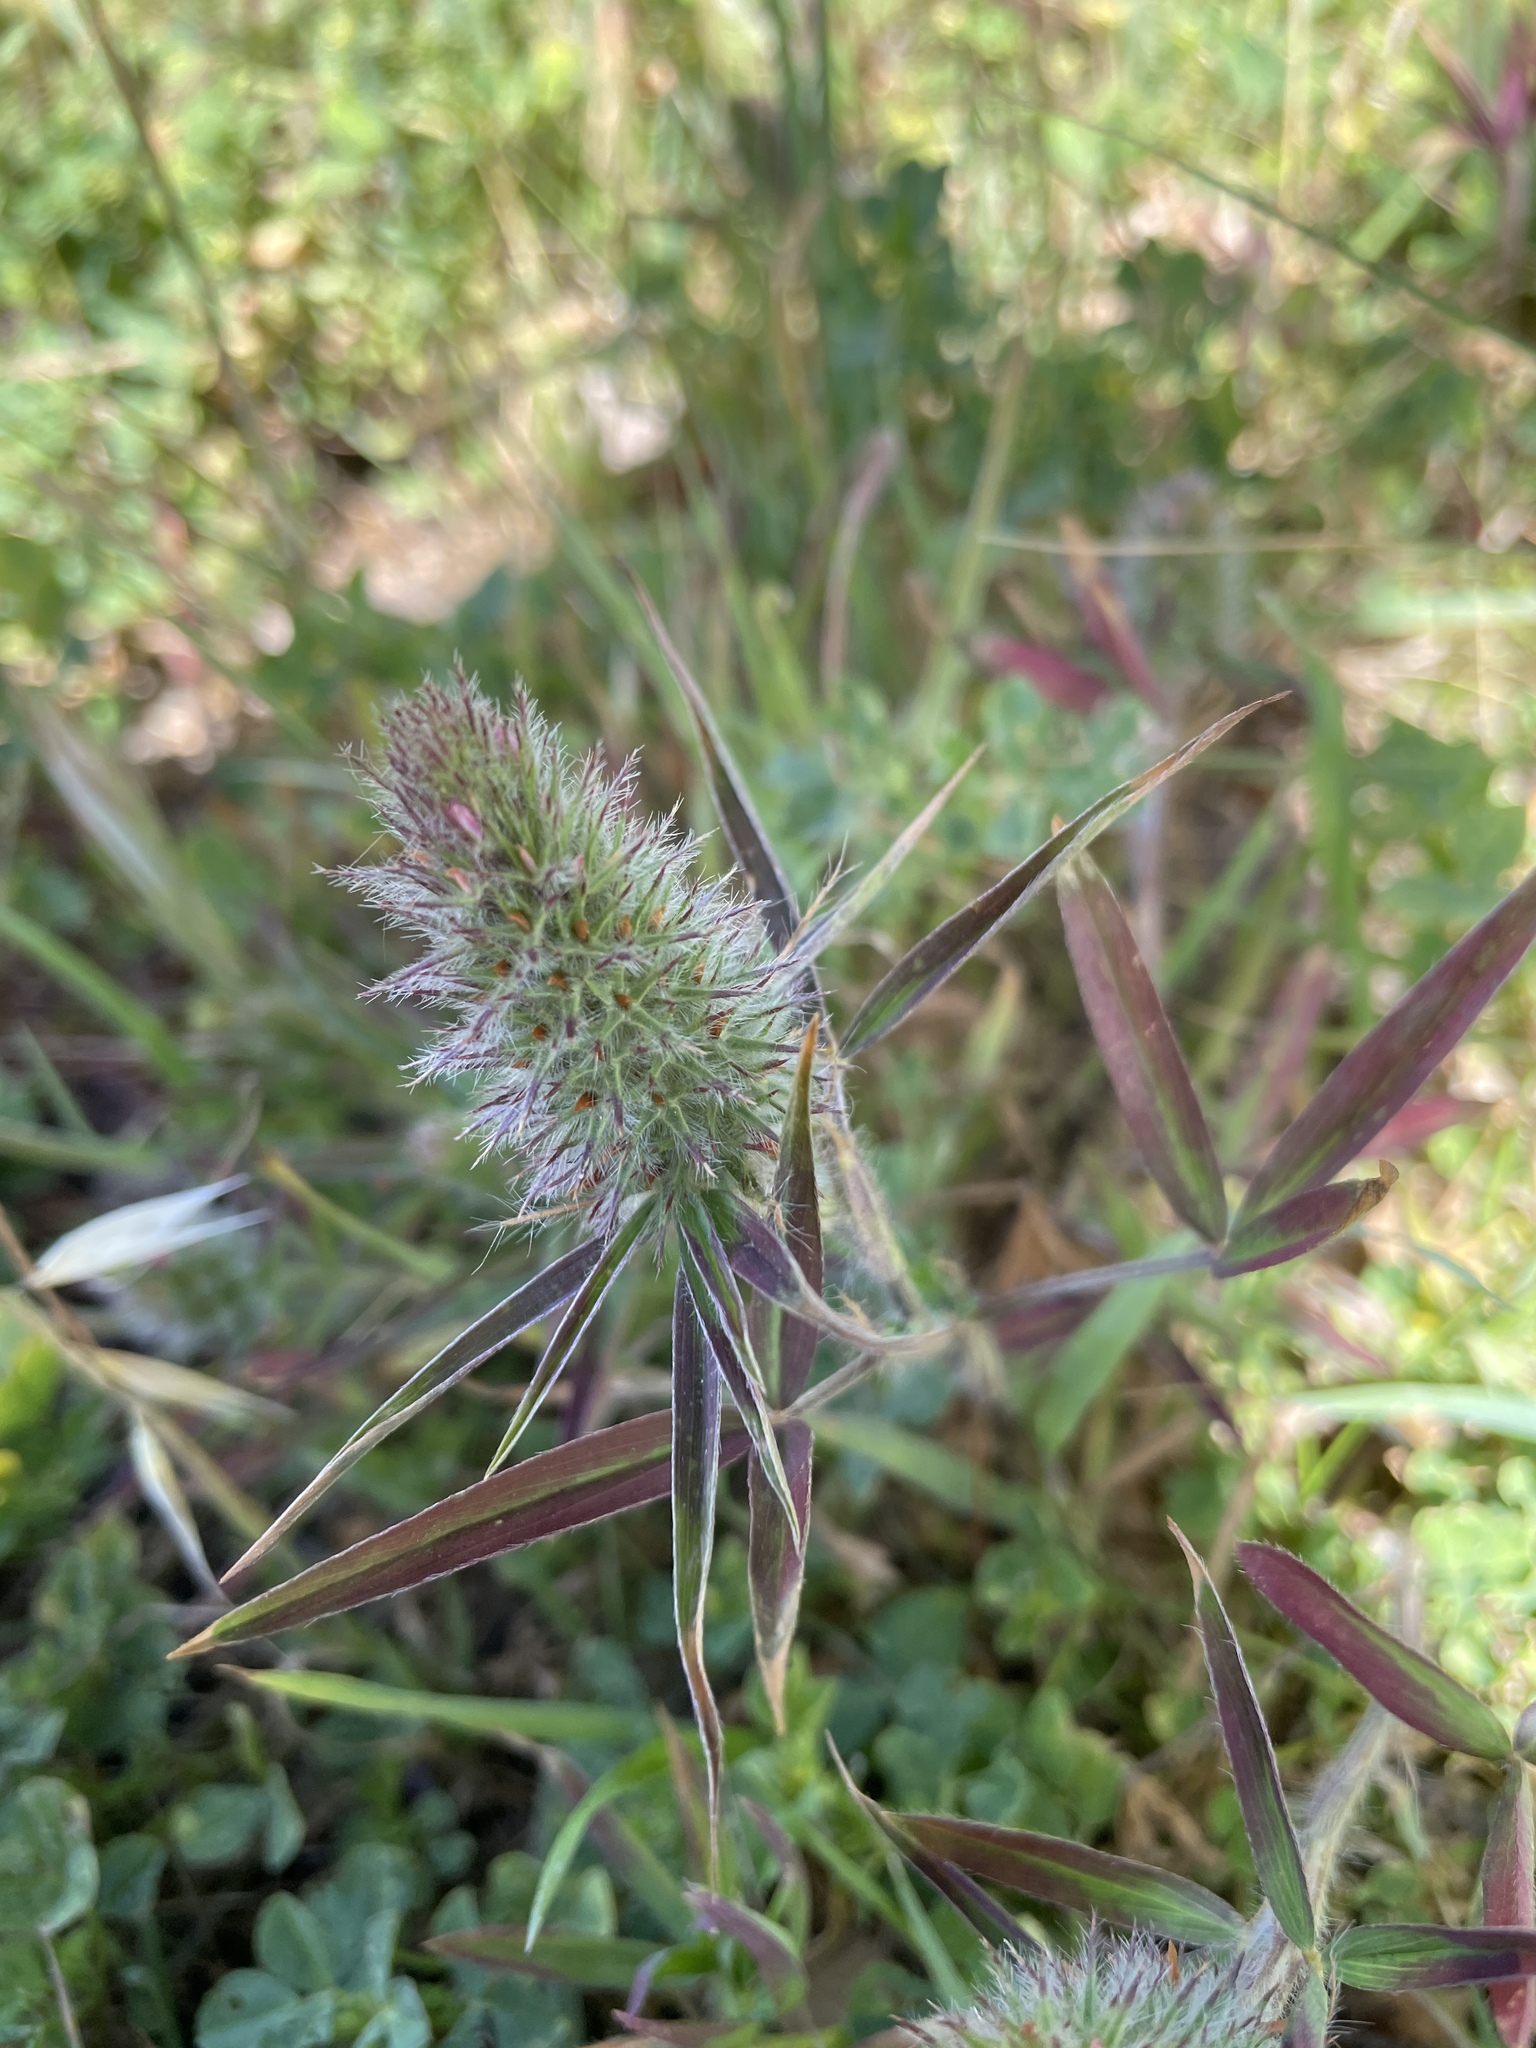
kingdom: Plantae
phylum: Tracheophyta
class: Magnoliopsida
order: Fabales
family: Fabaceae
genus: Trifolium
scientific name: Trifolium angustifolium
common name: Narrow clover
